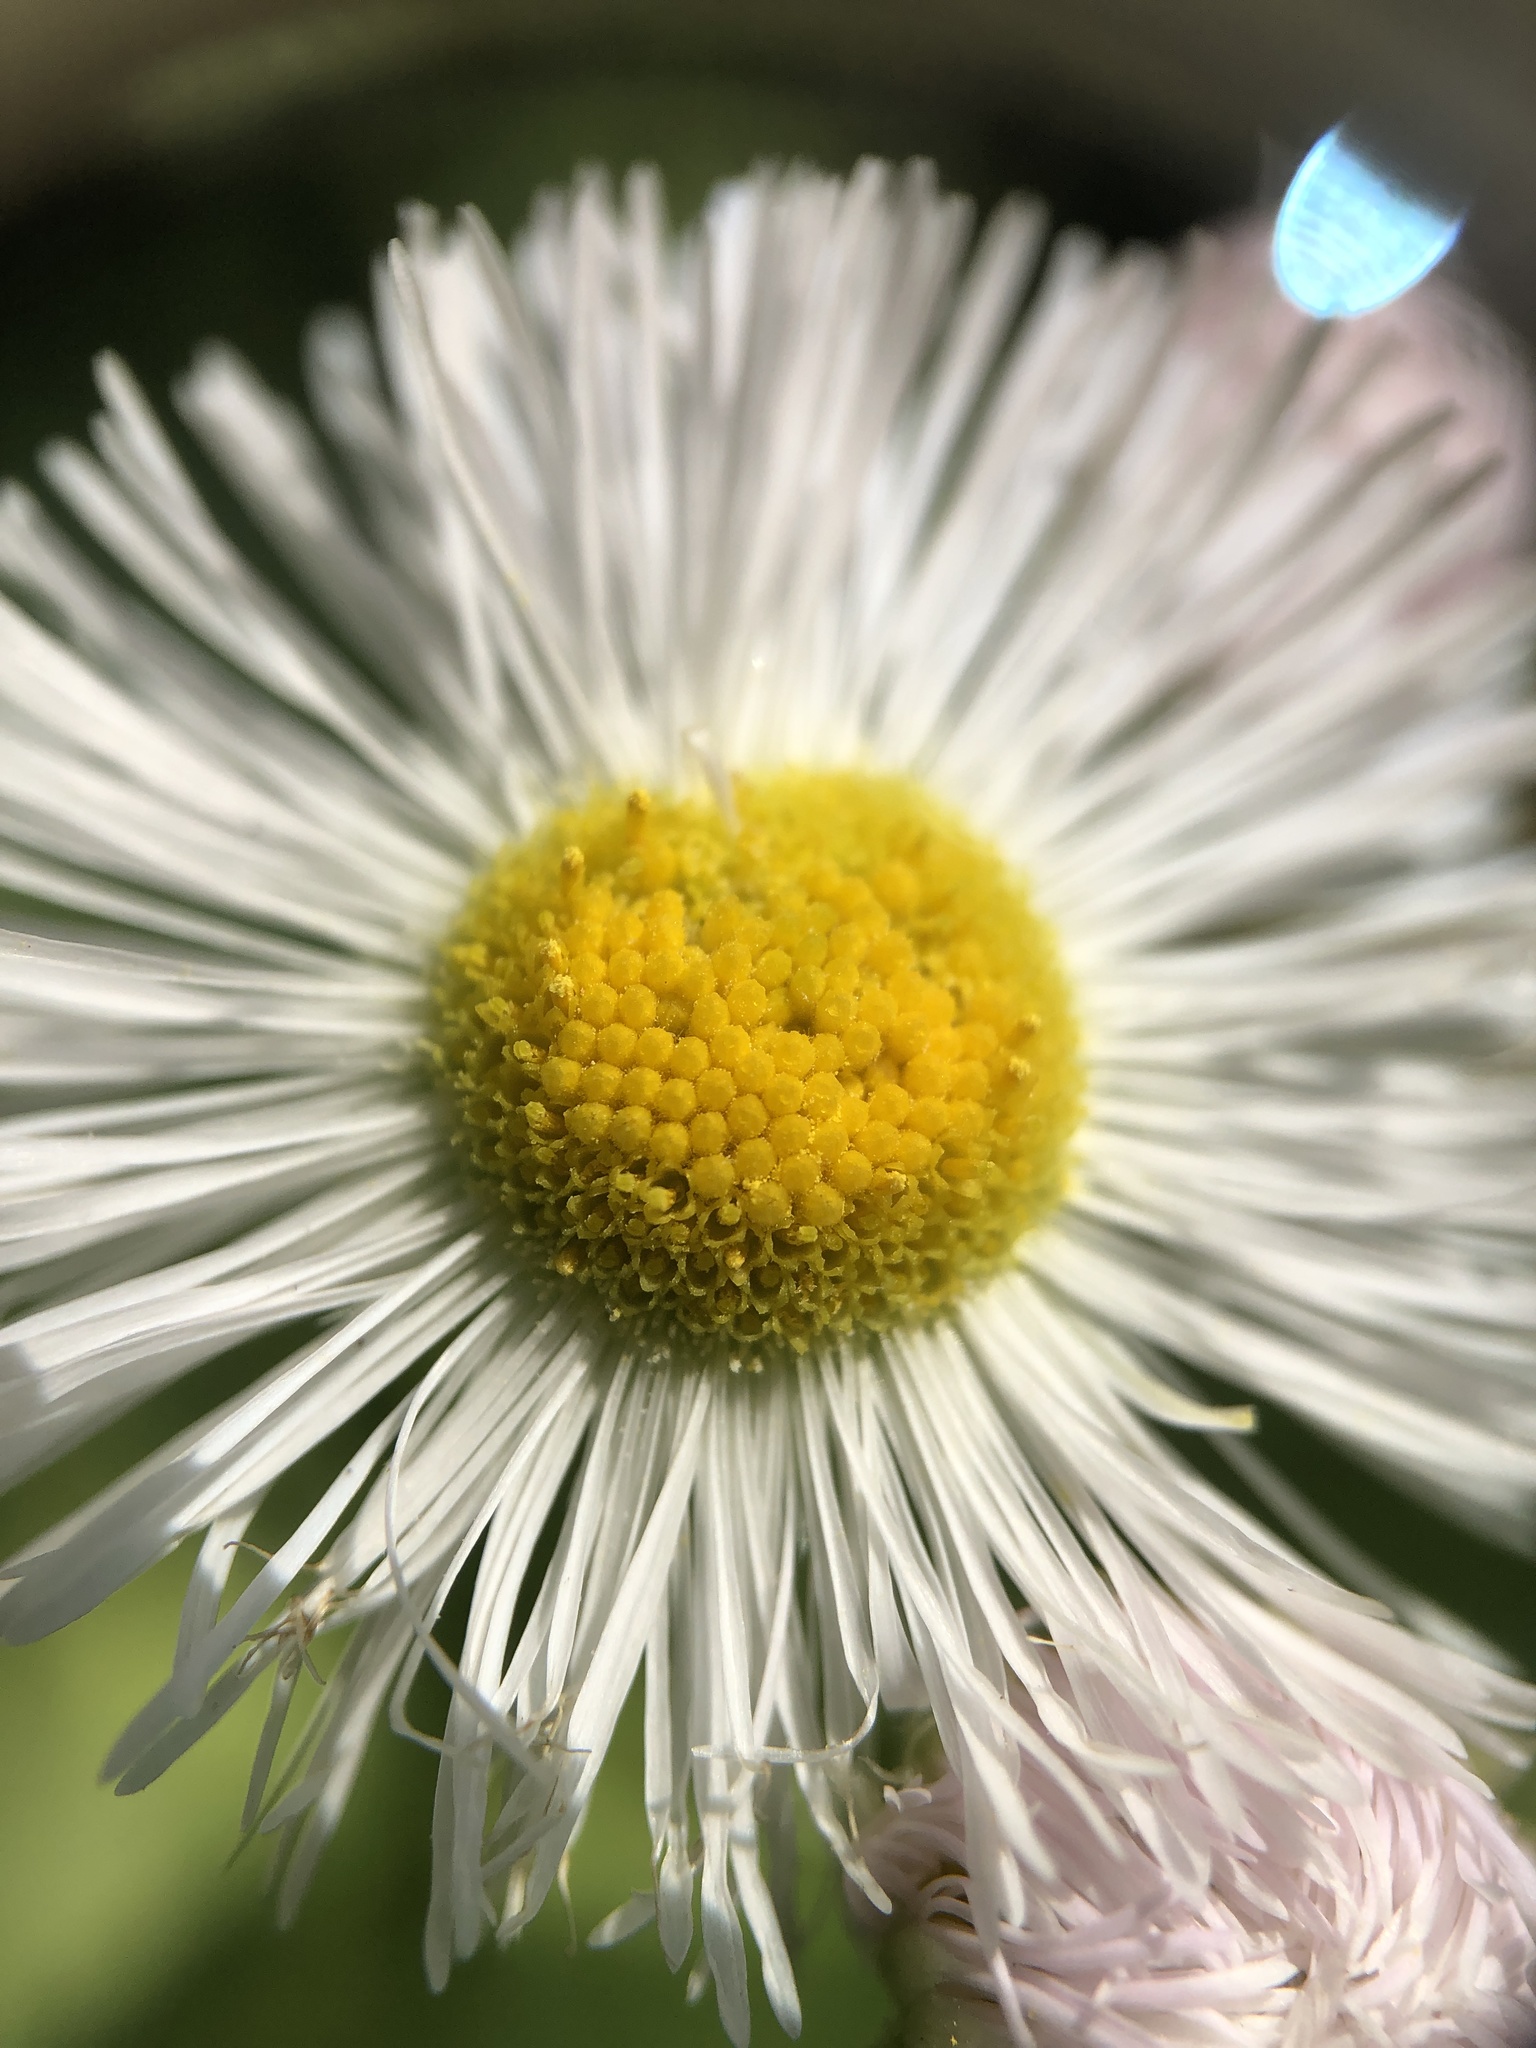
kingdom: Plantae
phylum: Tracheophyta
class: Magnoliopsida
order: Asterales
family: Asteraceae
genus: Erigeron
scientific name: Erigeron philadelphicus
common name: Robin's-plantain
